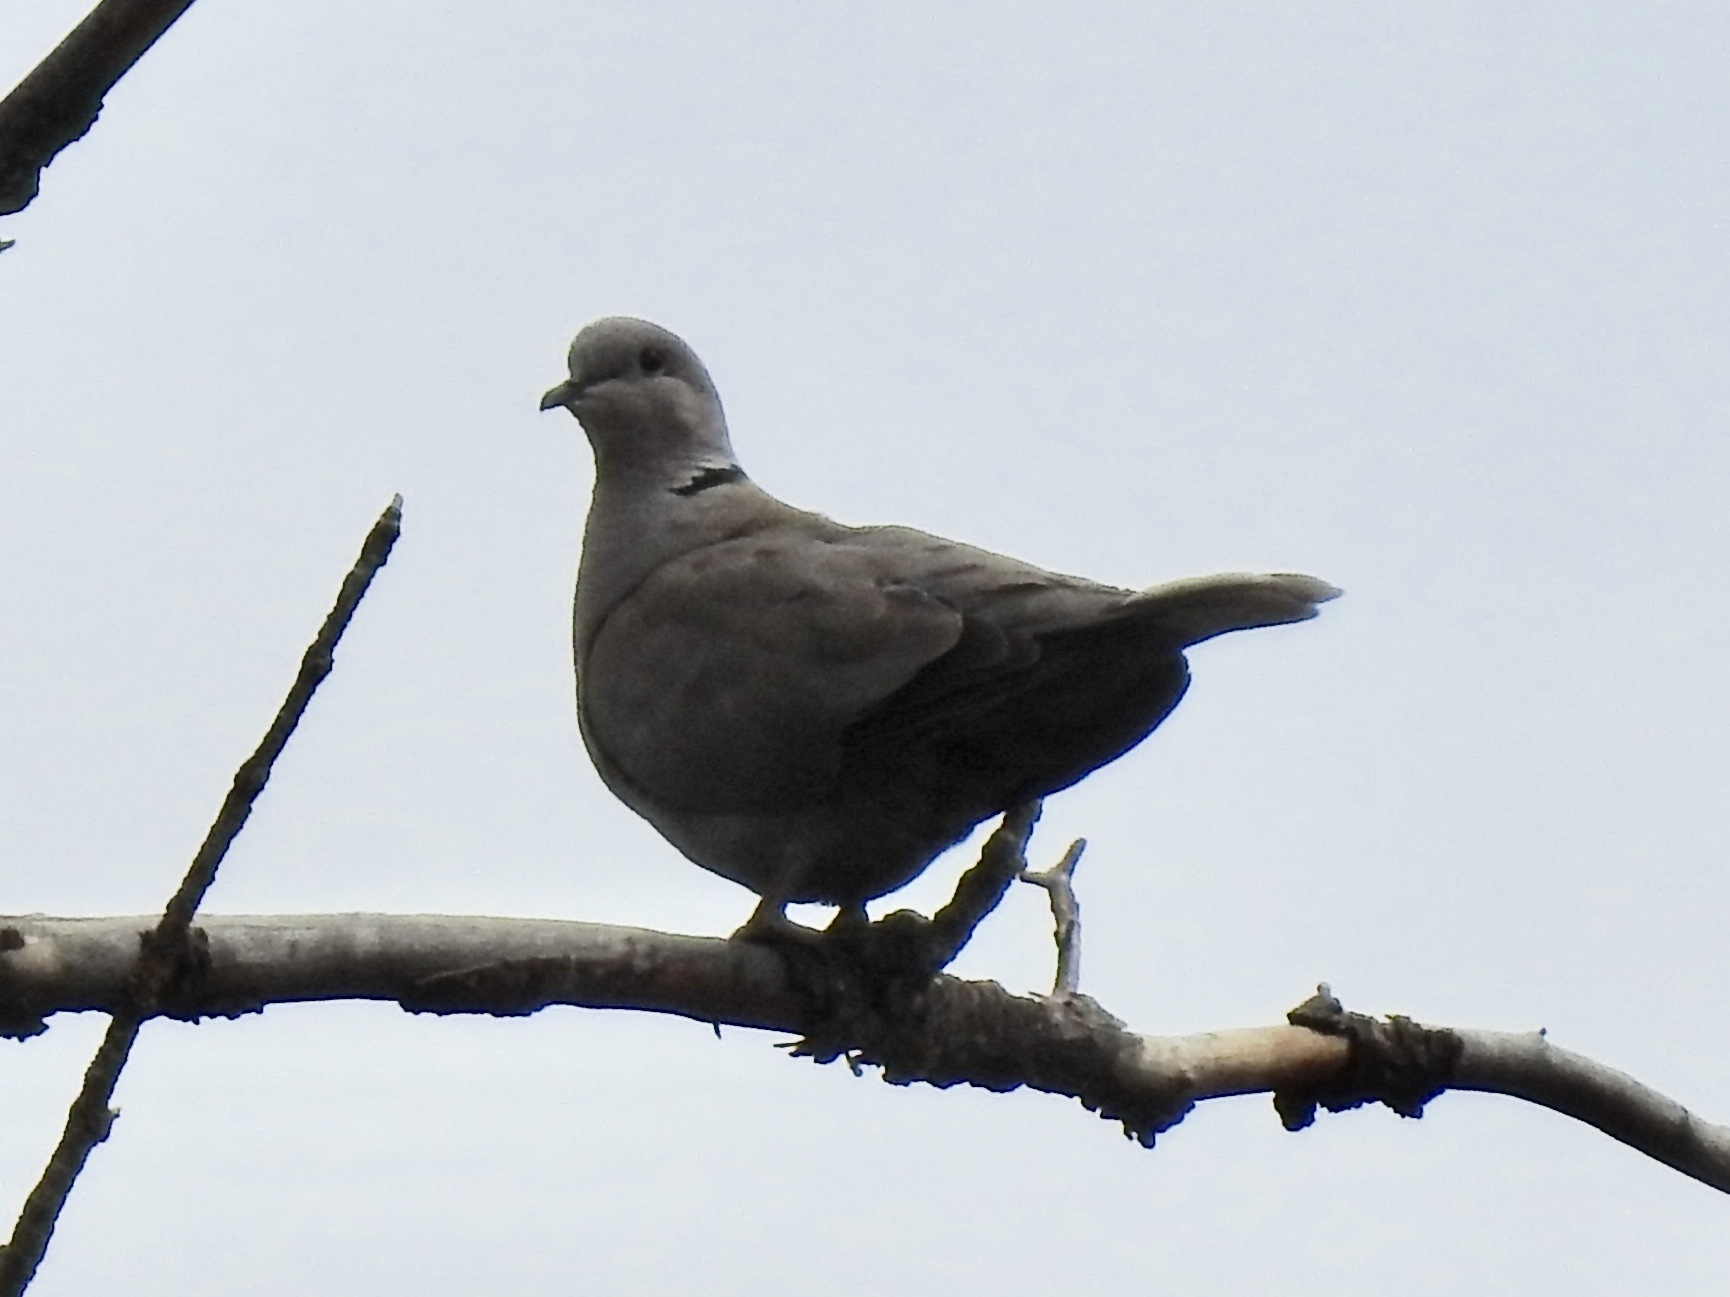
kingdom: Animalia
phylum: Chordata
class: Aves
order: Columbiformes
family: Columbidae
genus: Streptopelia
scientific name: Streptopelia decaocto
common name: Eurasian collared dove
